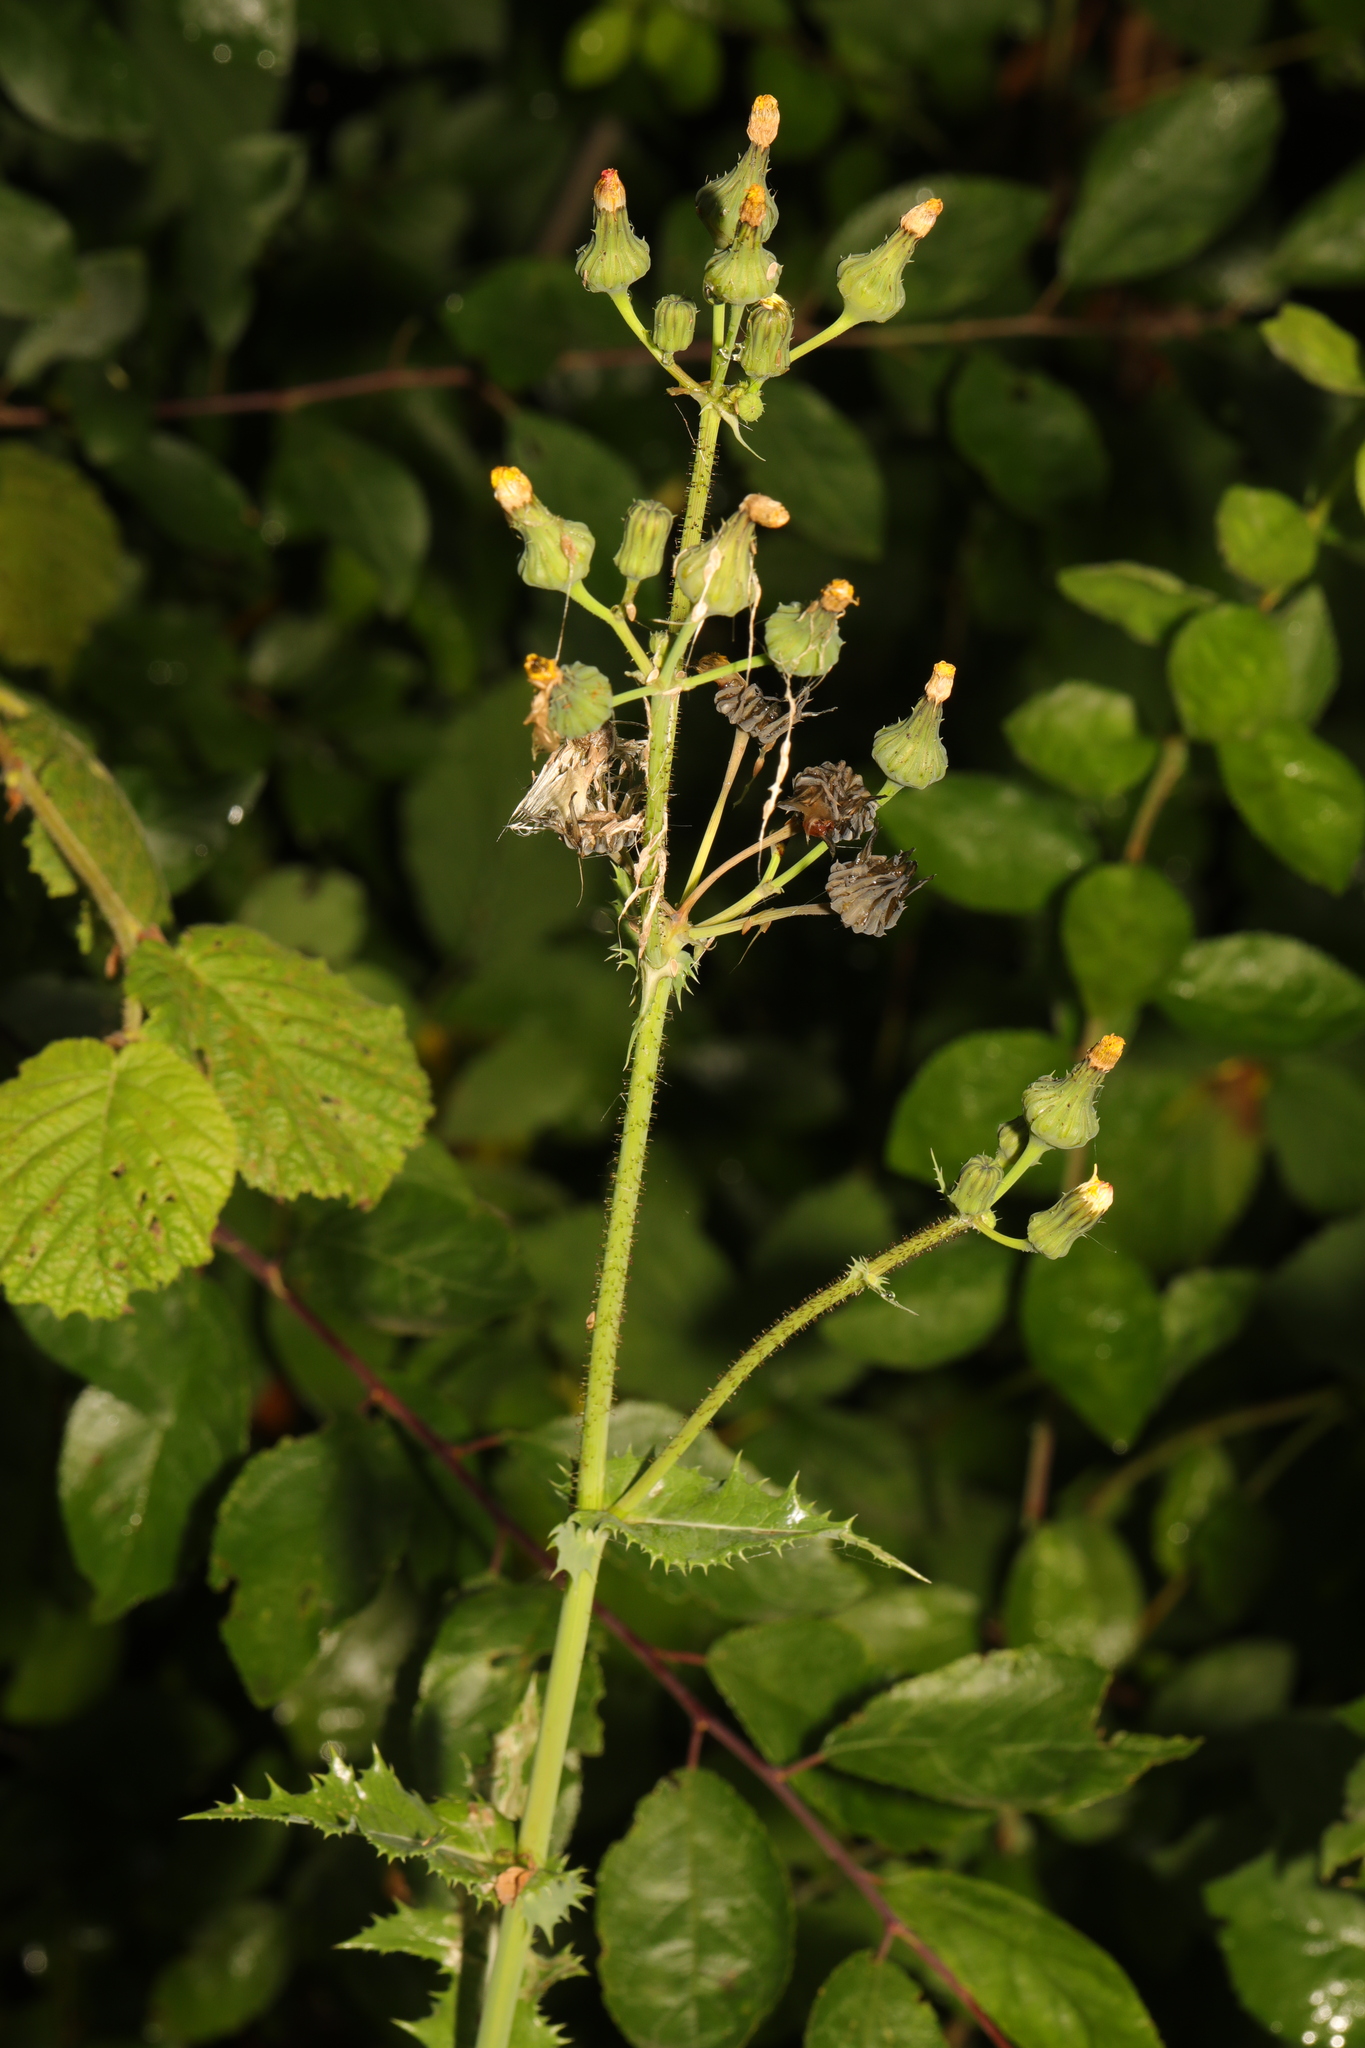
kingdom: Plantae
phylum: Tracheophyta
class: Magnoliopsida
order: Asterales
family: Asteraceae
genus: Sonchus
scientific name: Sonchus asper
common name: Prickly sow-thistle
